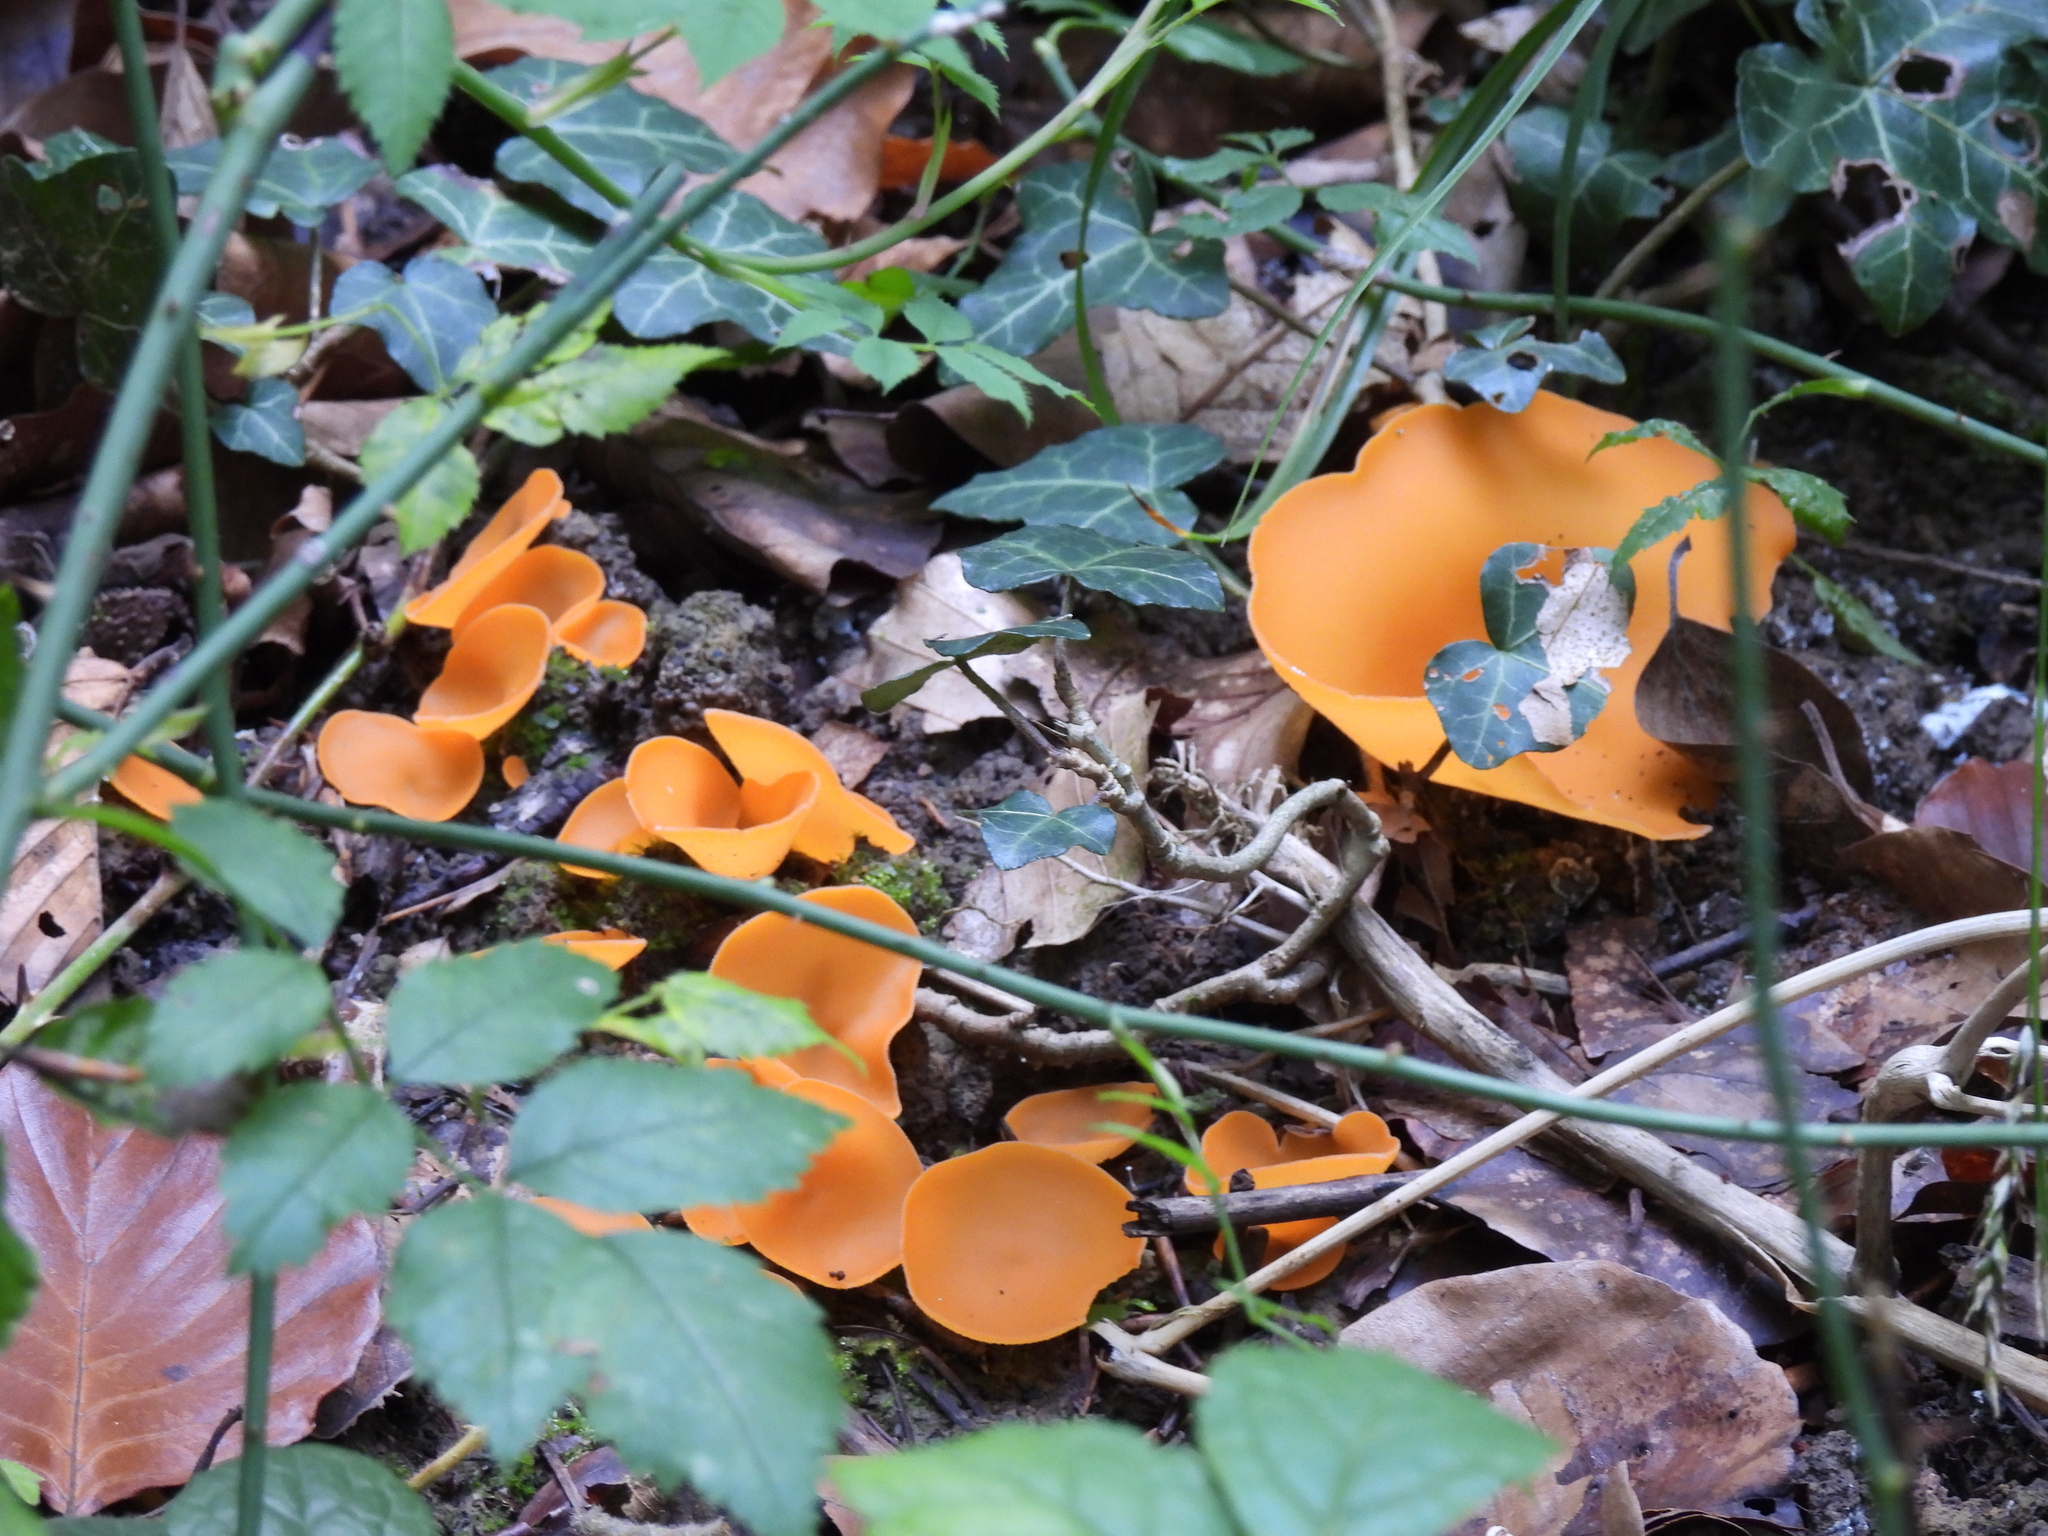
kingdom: Fungi
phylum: Ascomycota
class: Pezizomycetes
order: Pezizales
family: Pyronemataceae
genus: Aleuria
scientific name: Aleuria aurantia
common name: Orange peel fungus
